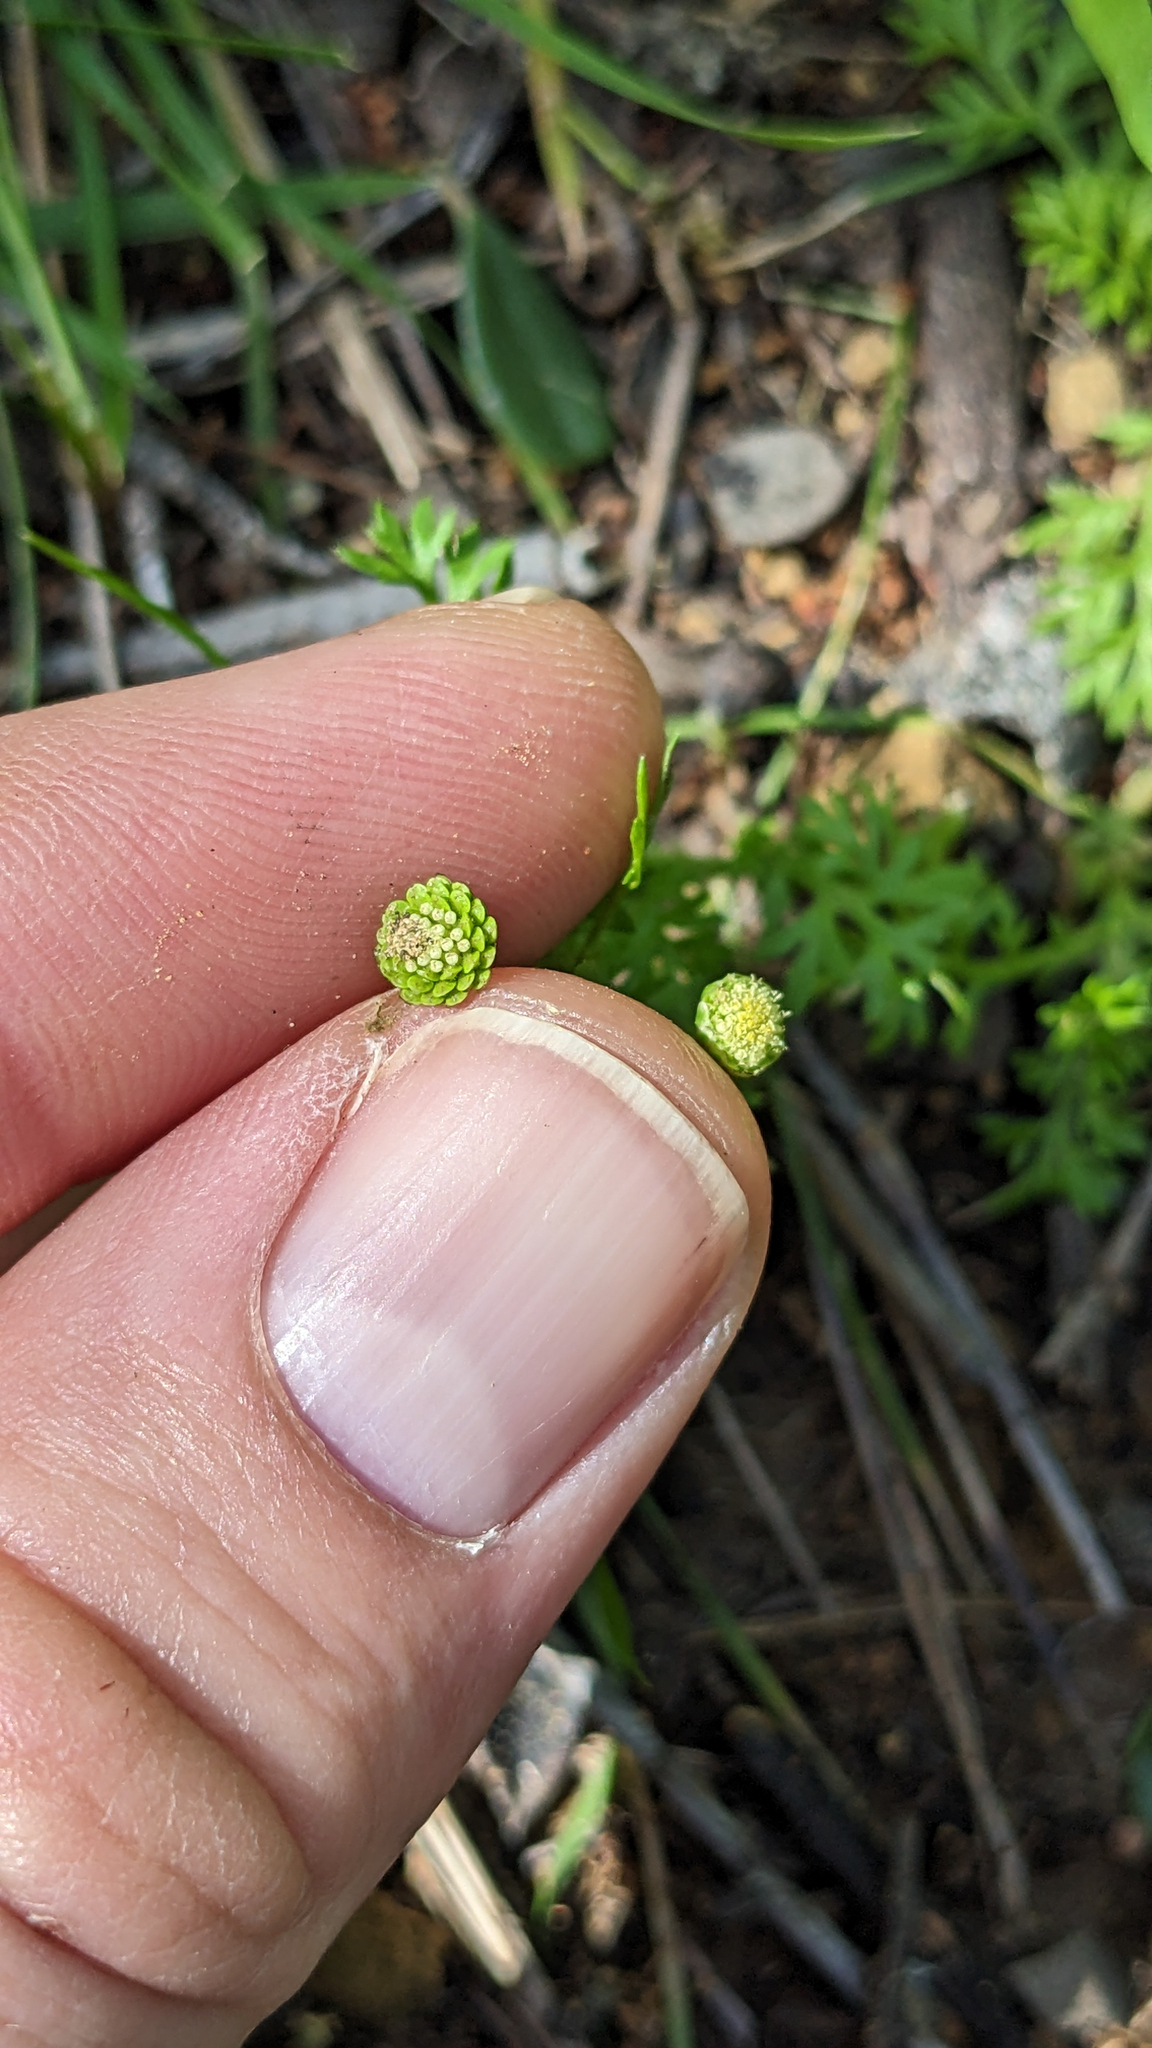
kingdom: Plantae
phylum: Tracheophyta
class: Magnoliopsida
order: Asterales
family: Asteraceae
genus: Cotula
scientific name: Cotula australis
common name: Australian waterbuttons
